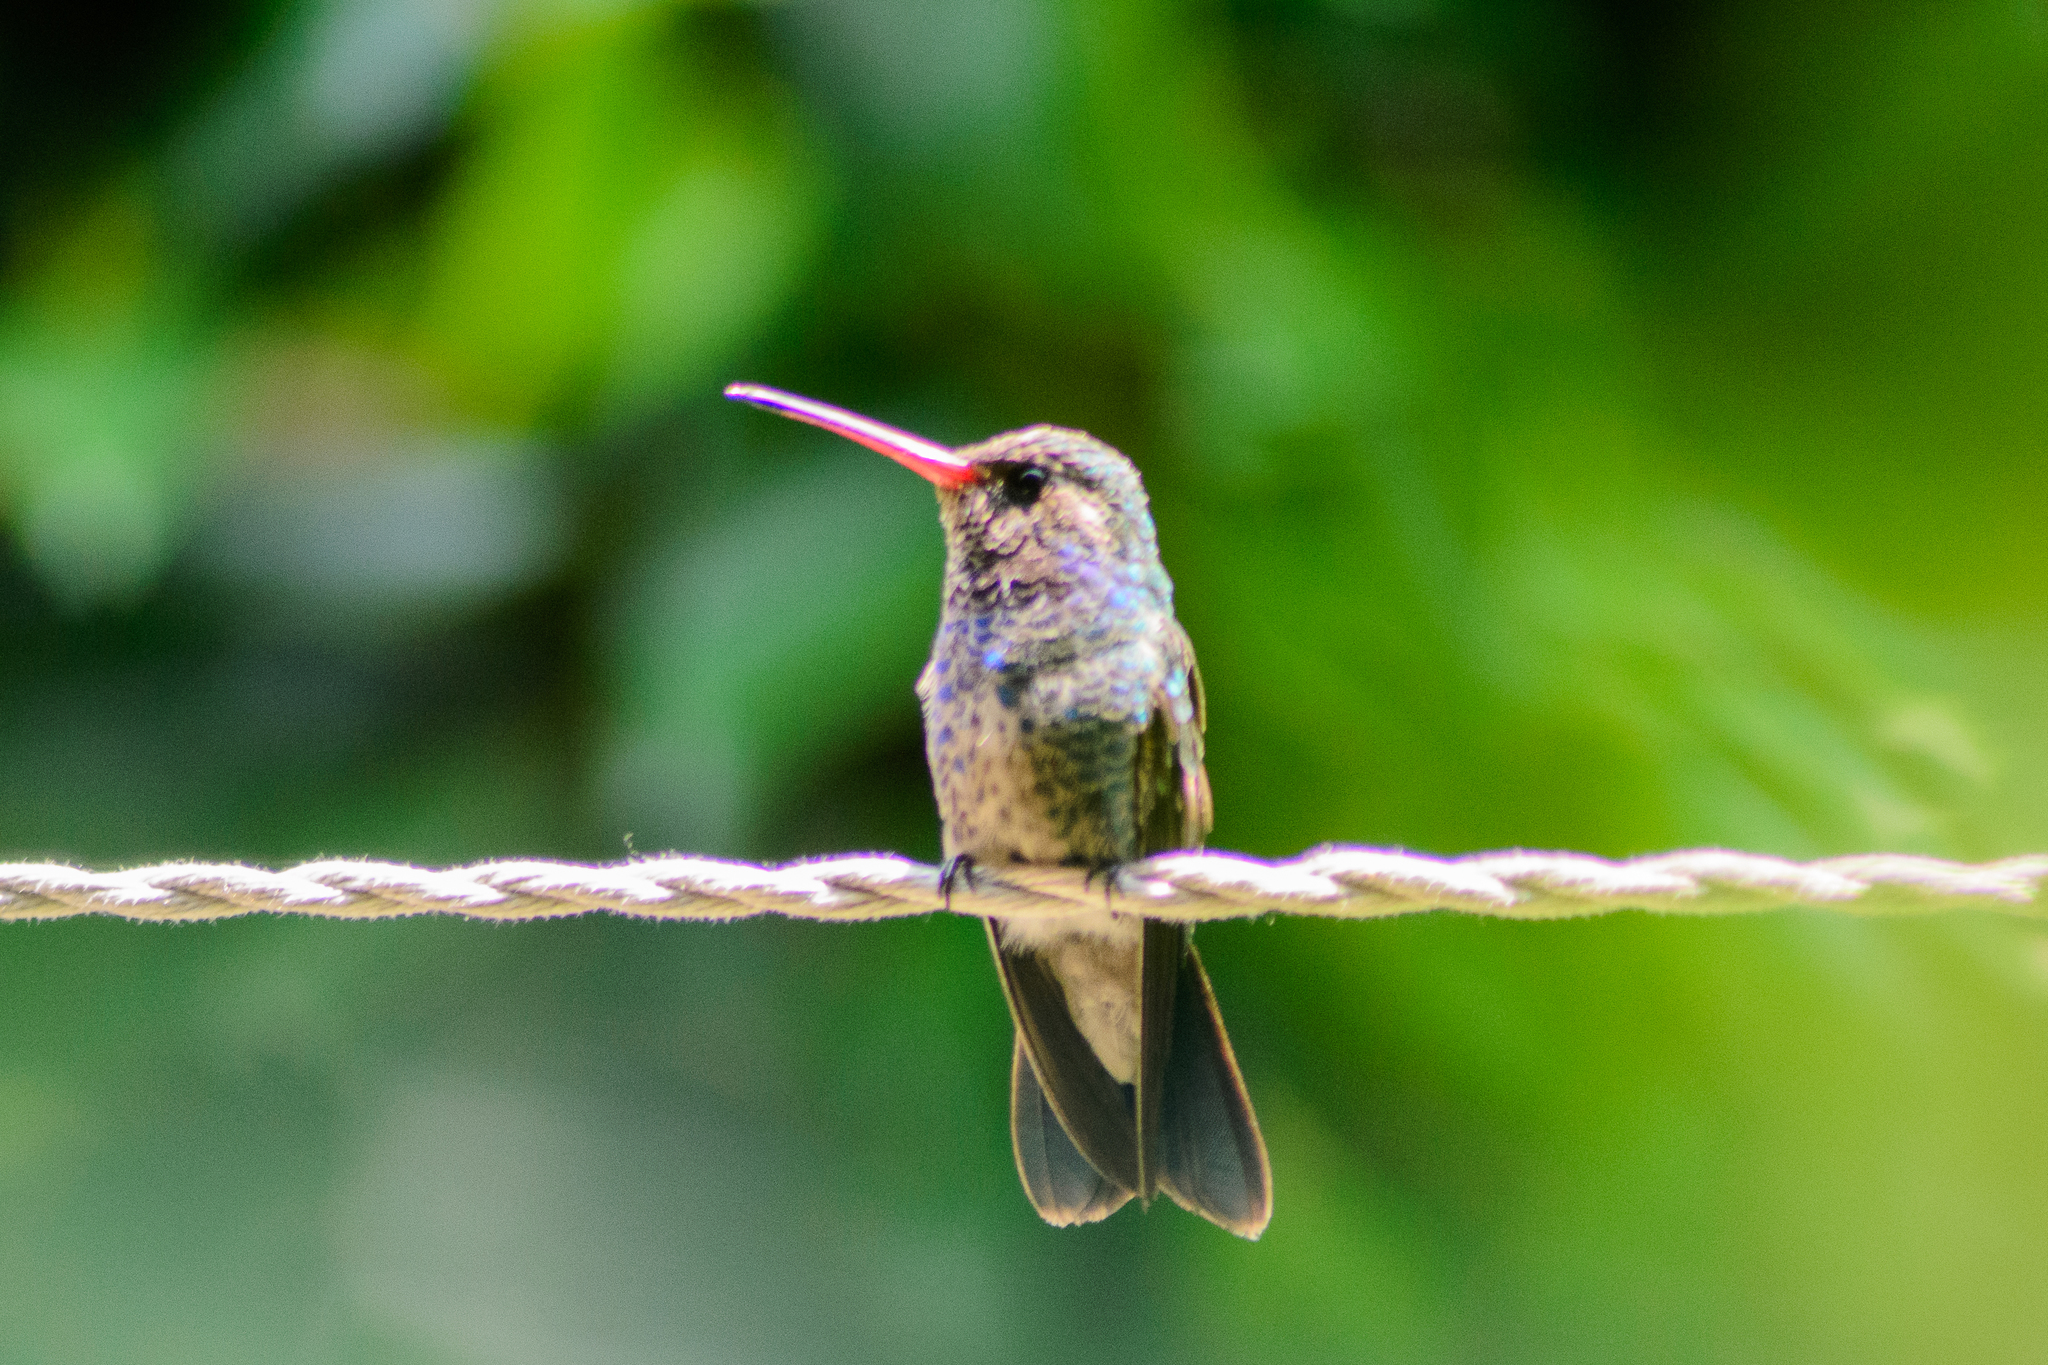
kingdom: Animalia
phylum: Chordata
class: Aves
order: Apodiformes
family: Trochilidae
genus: Cynanthus
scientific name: Cynanthus latirostris
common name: Broad-billed hummingbird
